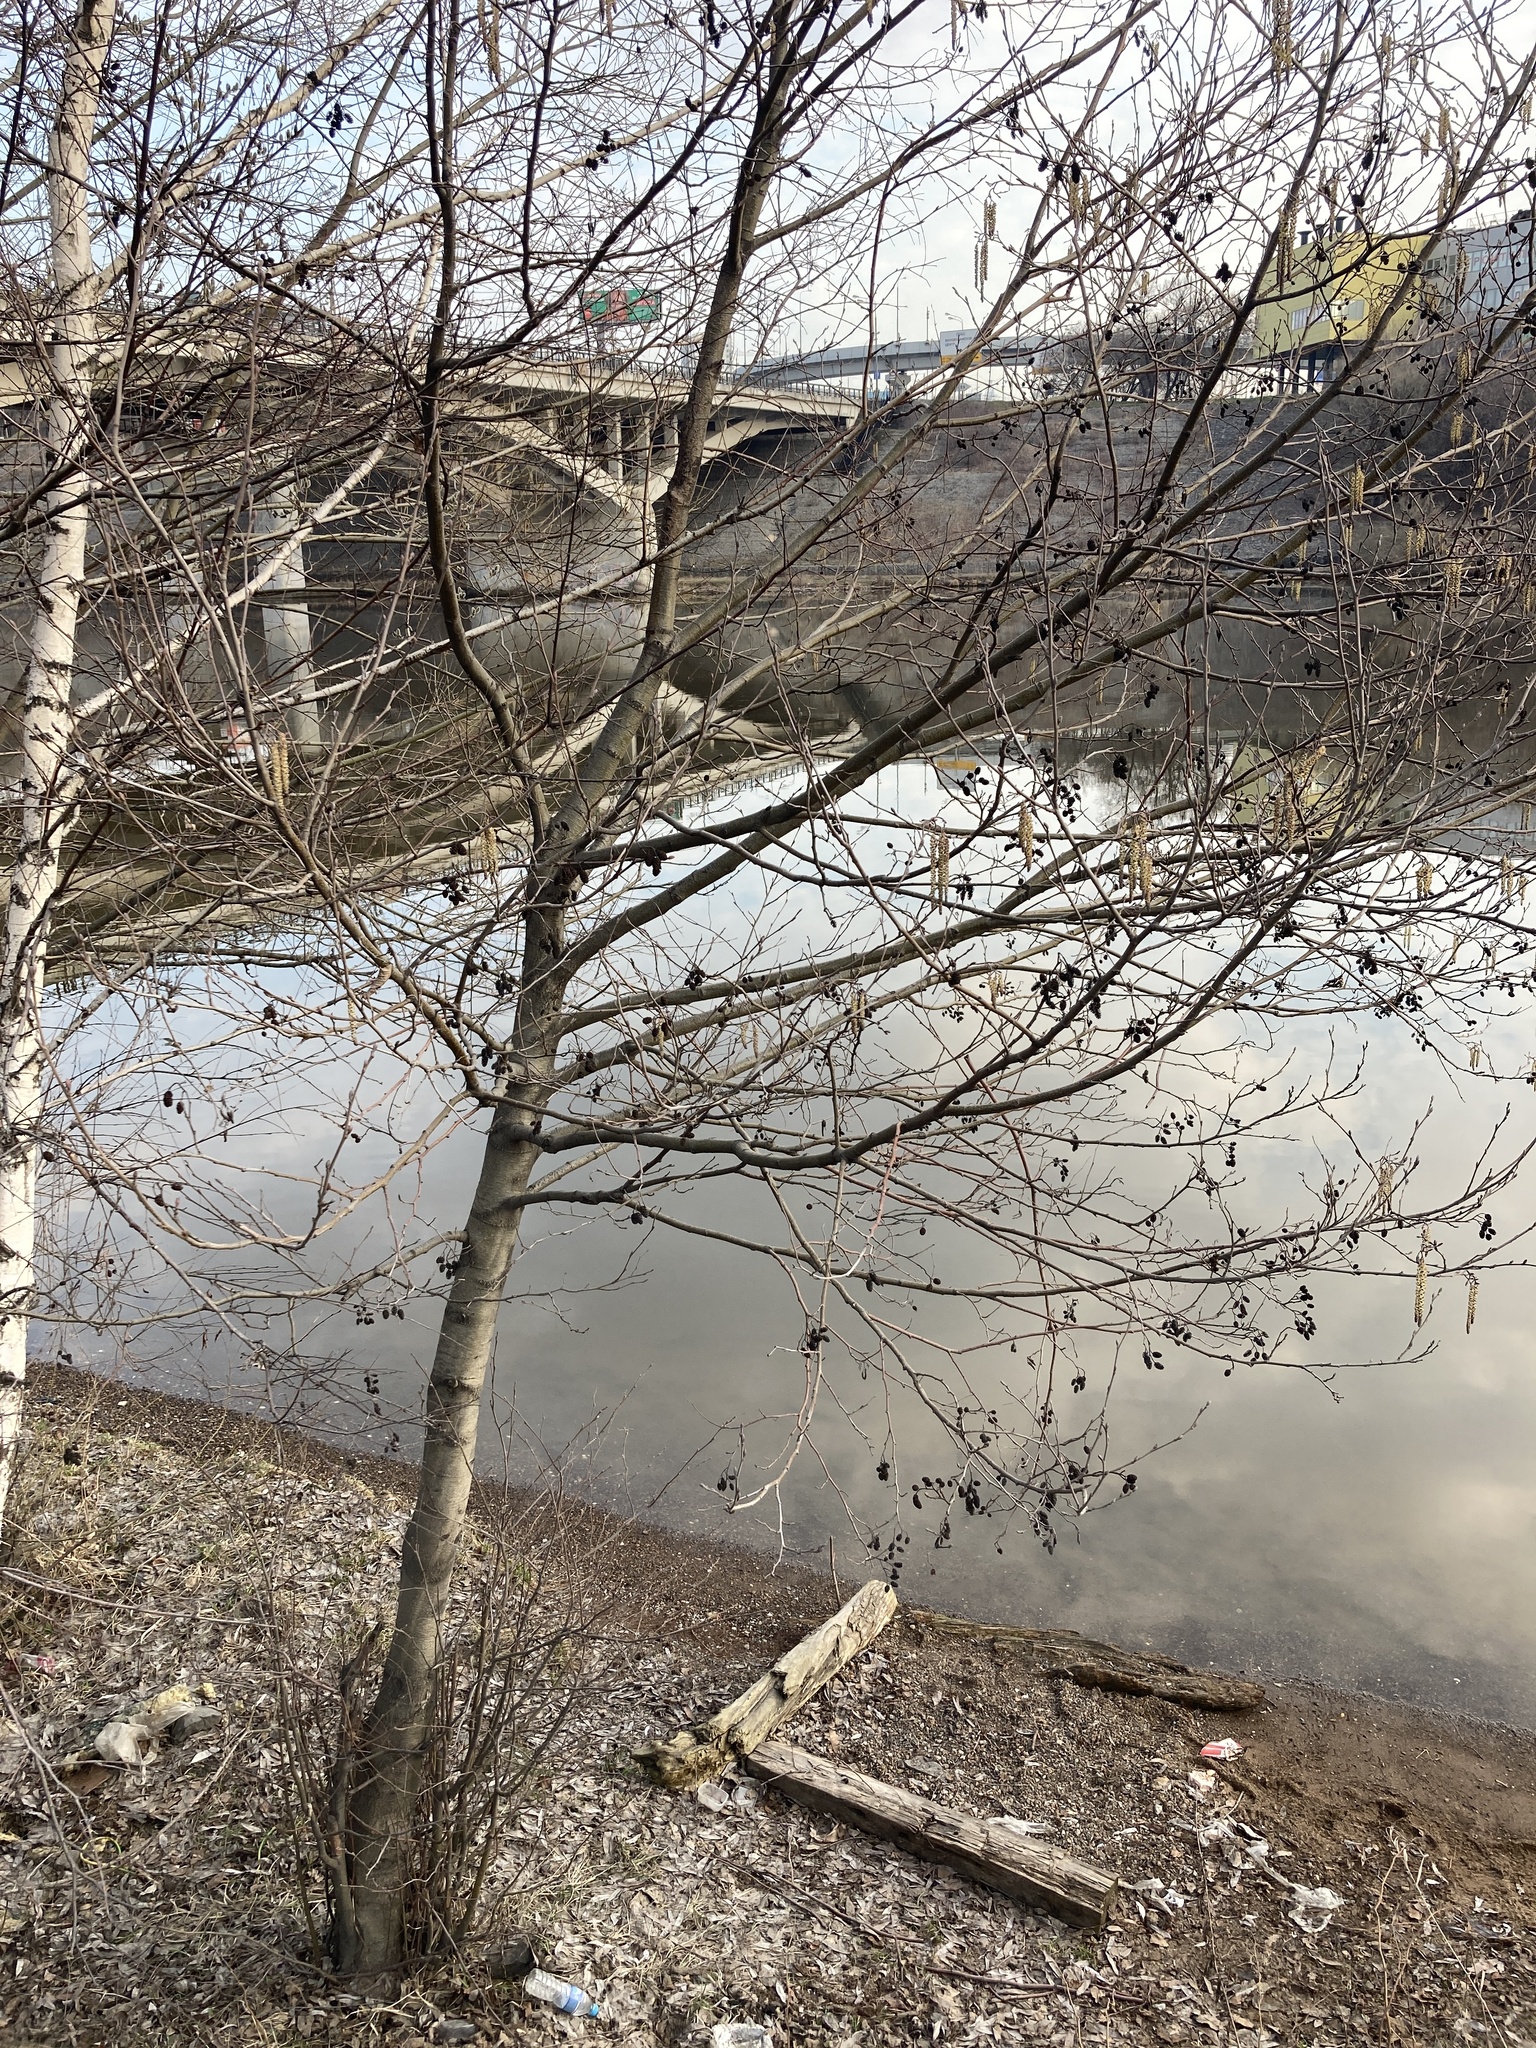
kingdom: Plantae
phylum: Tracheophyta
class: Magnoliopsida
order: Fagales
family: Betulaceae
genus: Alnus
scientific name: Alnus glutinosa
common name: Black alder
